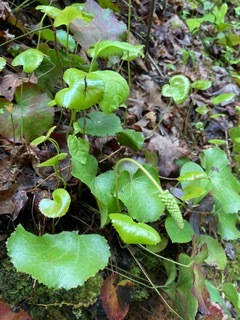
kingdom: Plantae
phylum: Tracheophyta
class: Magnoliopsida
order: Ericales
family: Diapensiaceae
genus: Galax
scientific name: Galax urceolata
